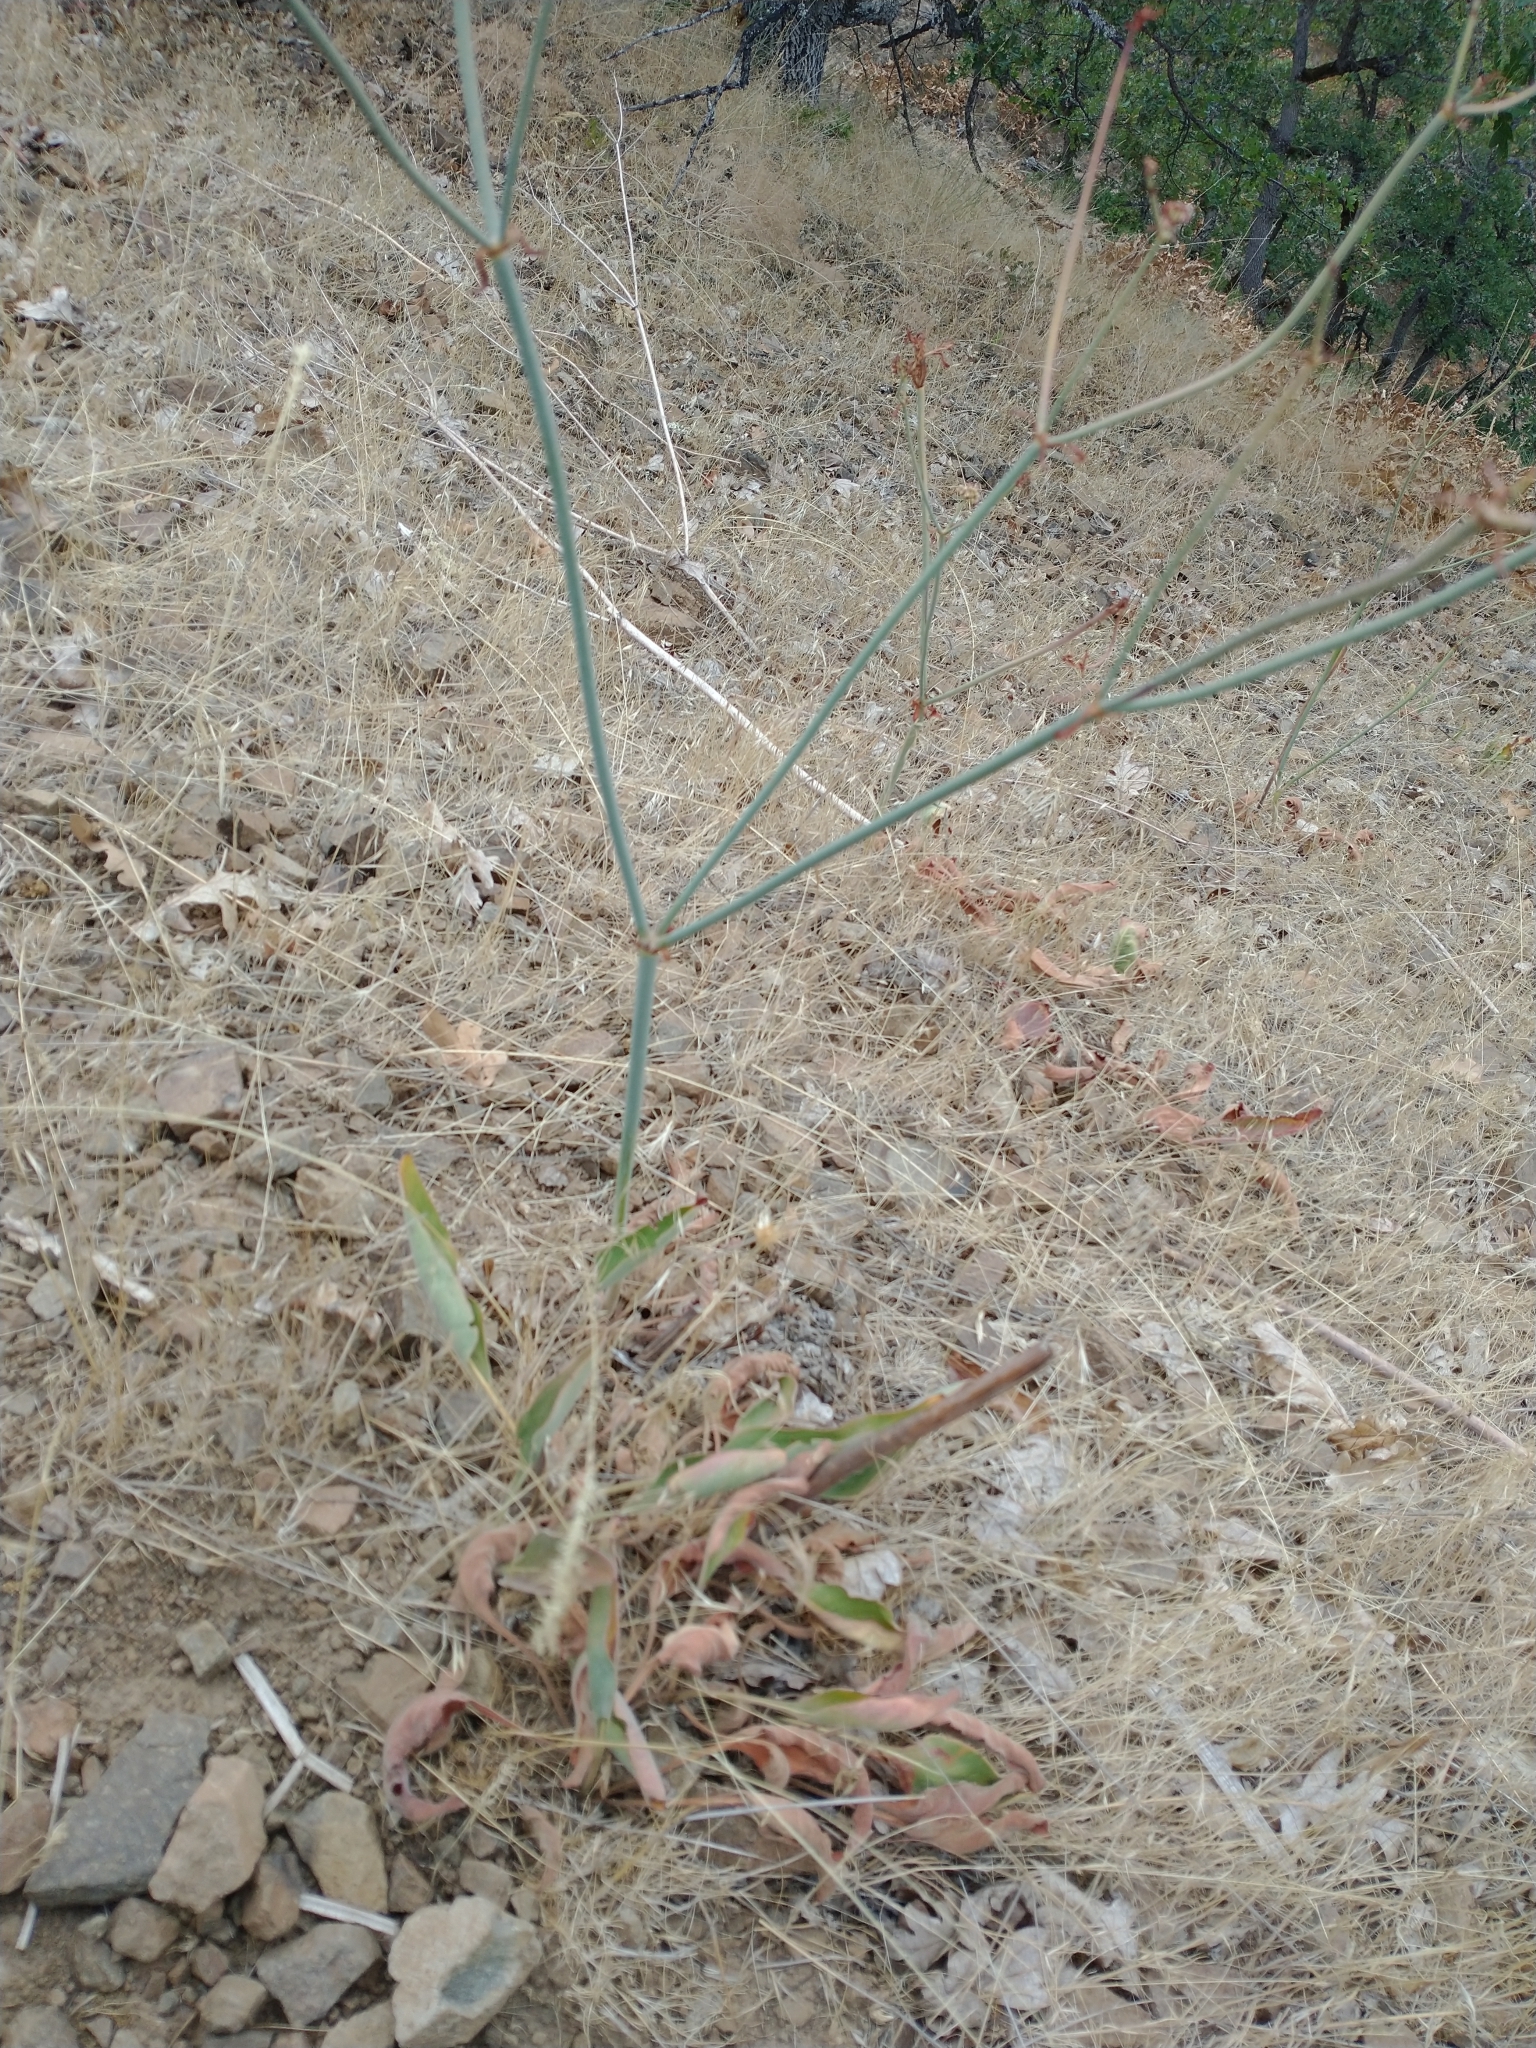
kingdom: Plantae
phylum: Tracheophyta
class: Magnoliopsida
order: Caryophyllales
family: Polygonaceae
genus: Eriogonum
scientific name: Eriogonum elatum
